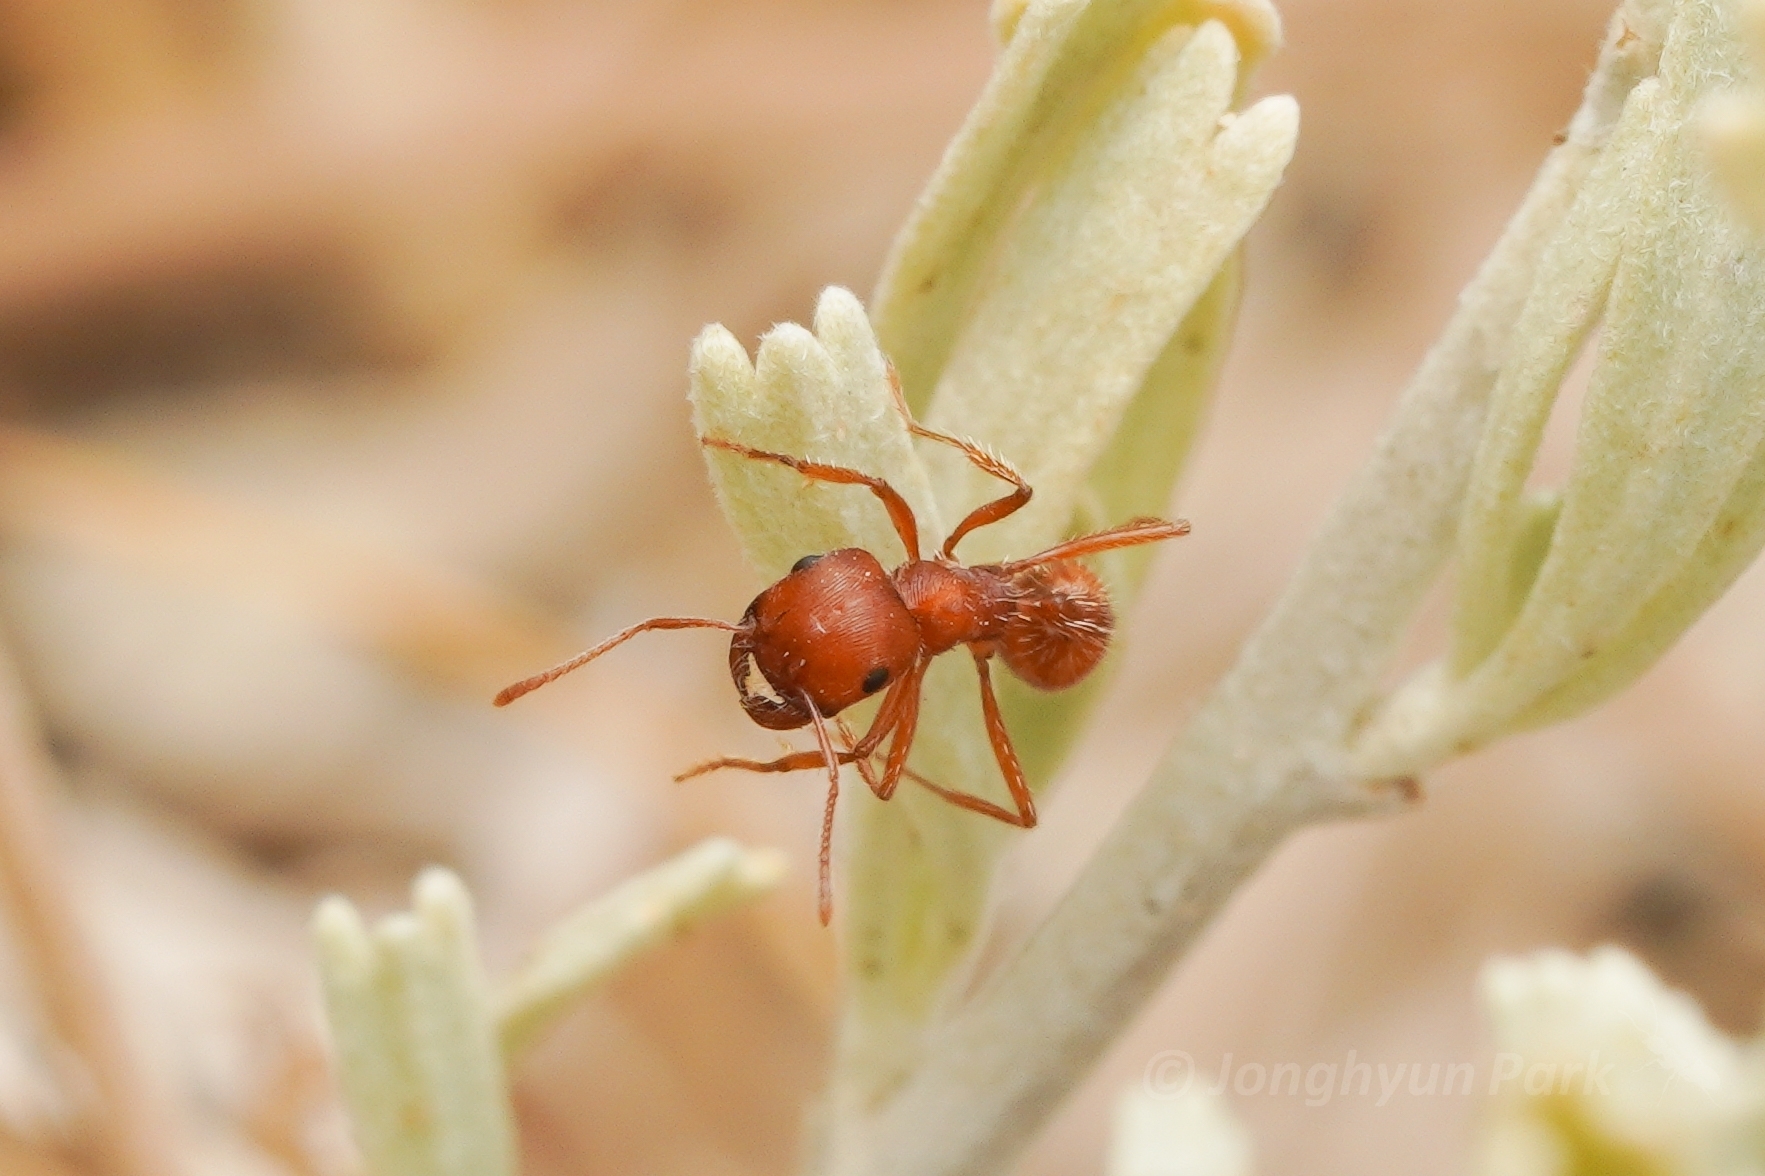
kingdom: Animalia
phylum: Arthropoda
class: Insecta
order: Hymenoptera
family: Formicidae
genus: Pogonomyrmex
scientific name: Pogonomyrmex subnitidus
